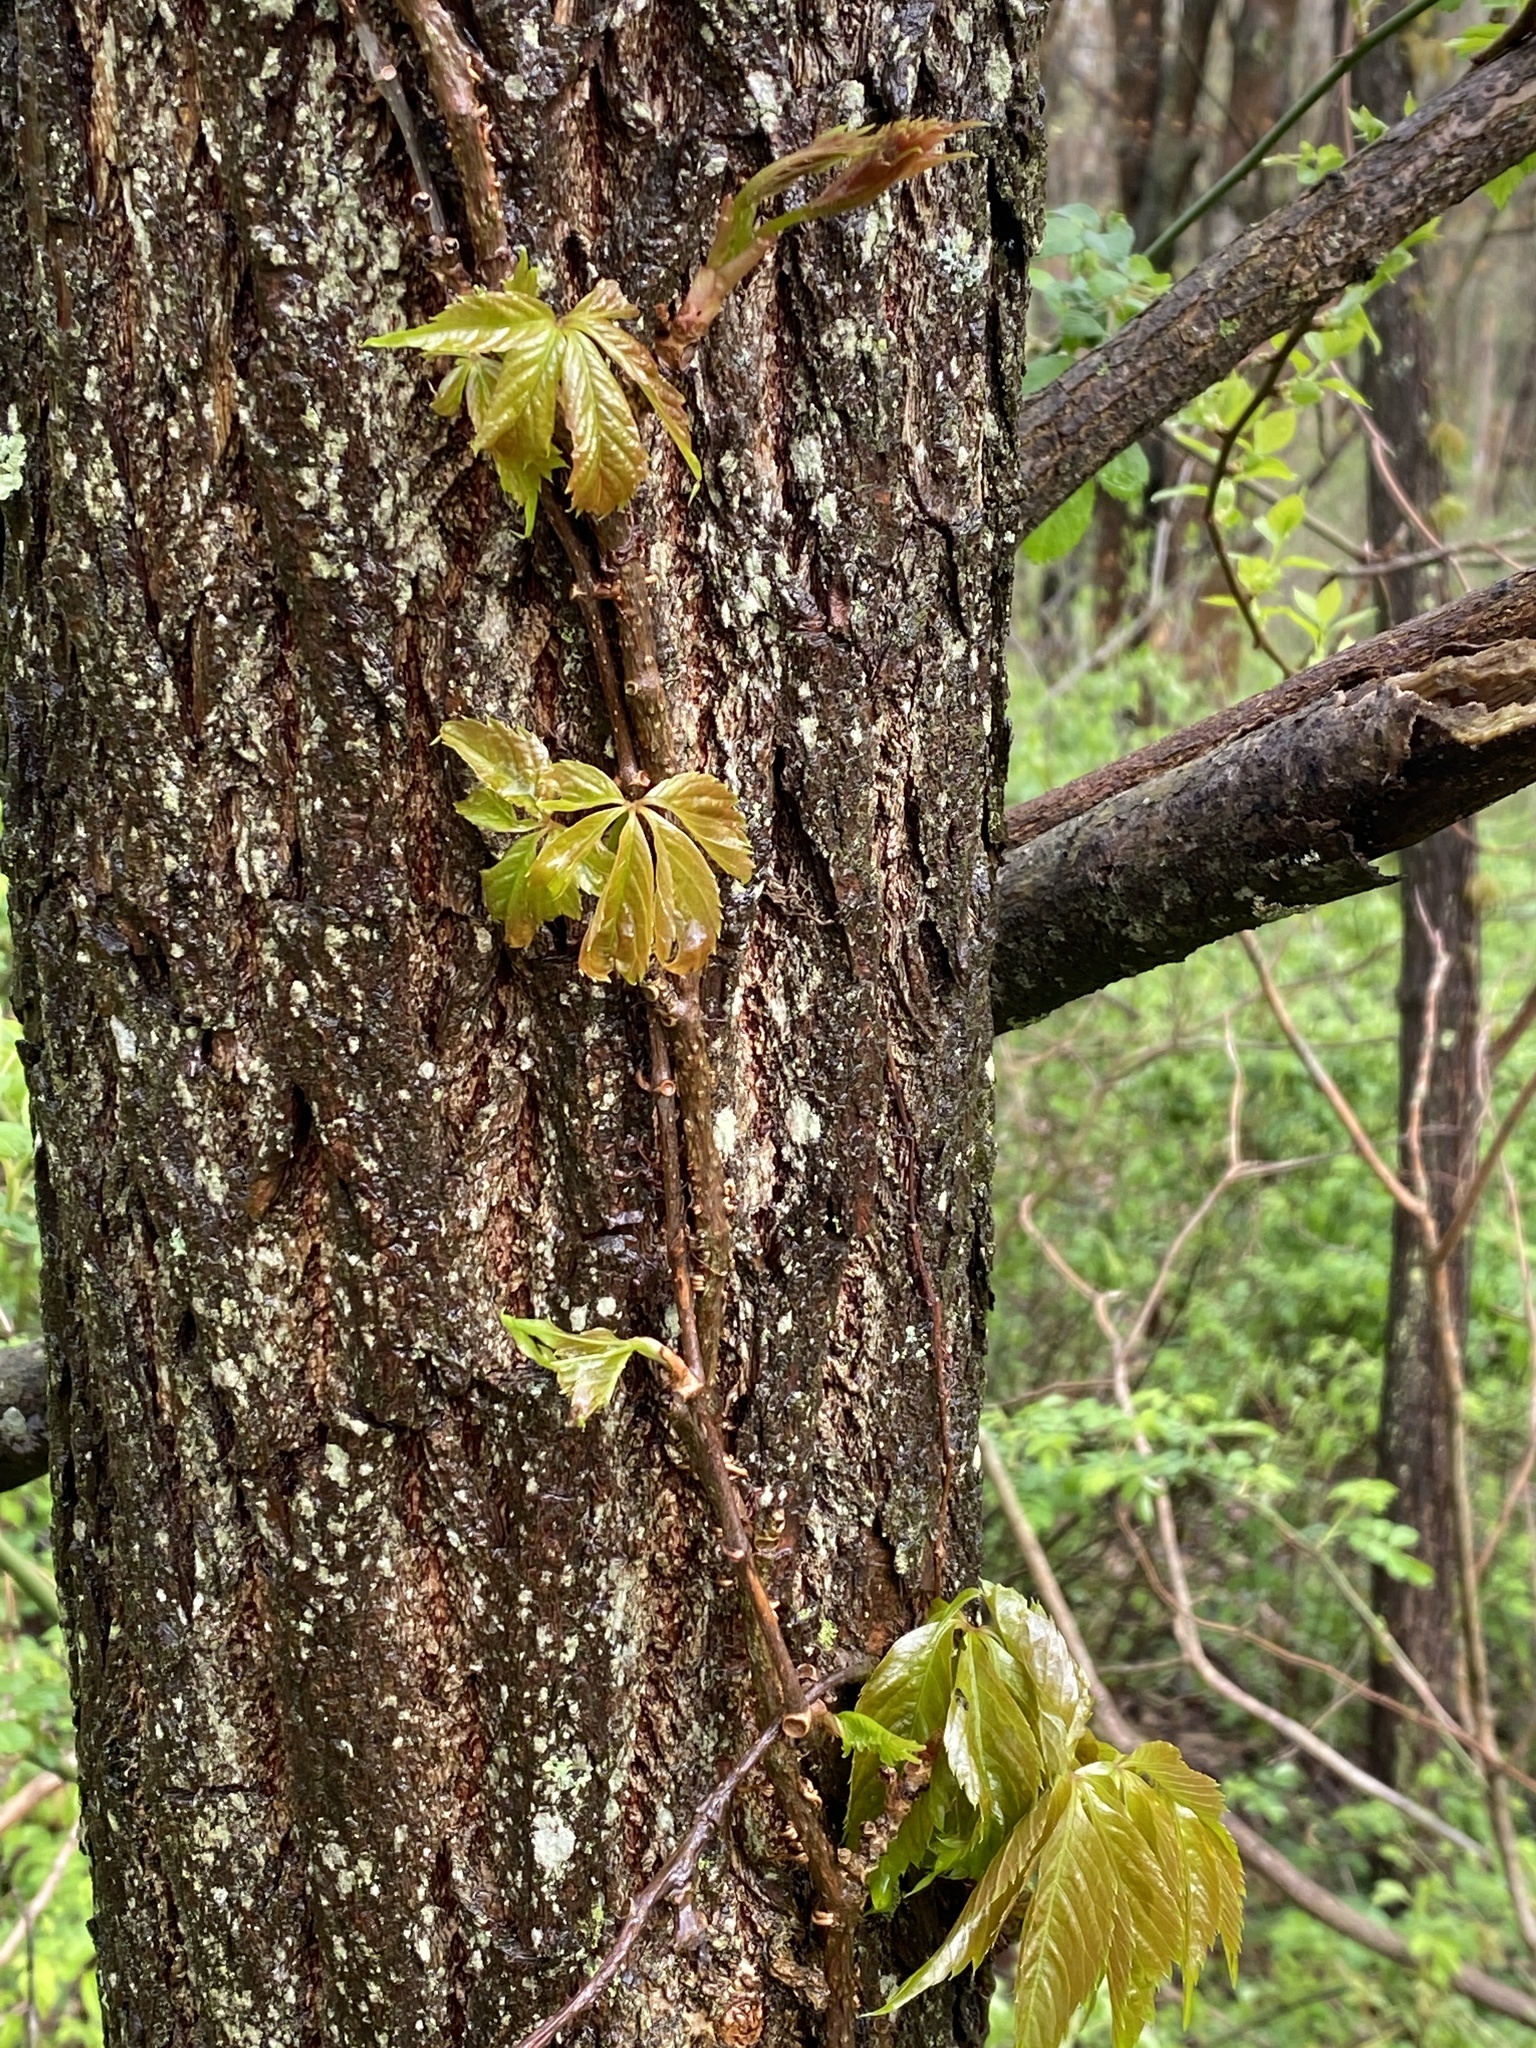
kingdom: Plantae
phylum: Tracheophyta
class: Magnoliopsida
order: Vitales
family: Vitaceae
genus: Parthenocissus
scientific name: Parthenocissus quinquefolia
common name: Virginia-creeper
